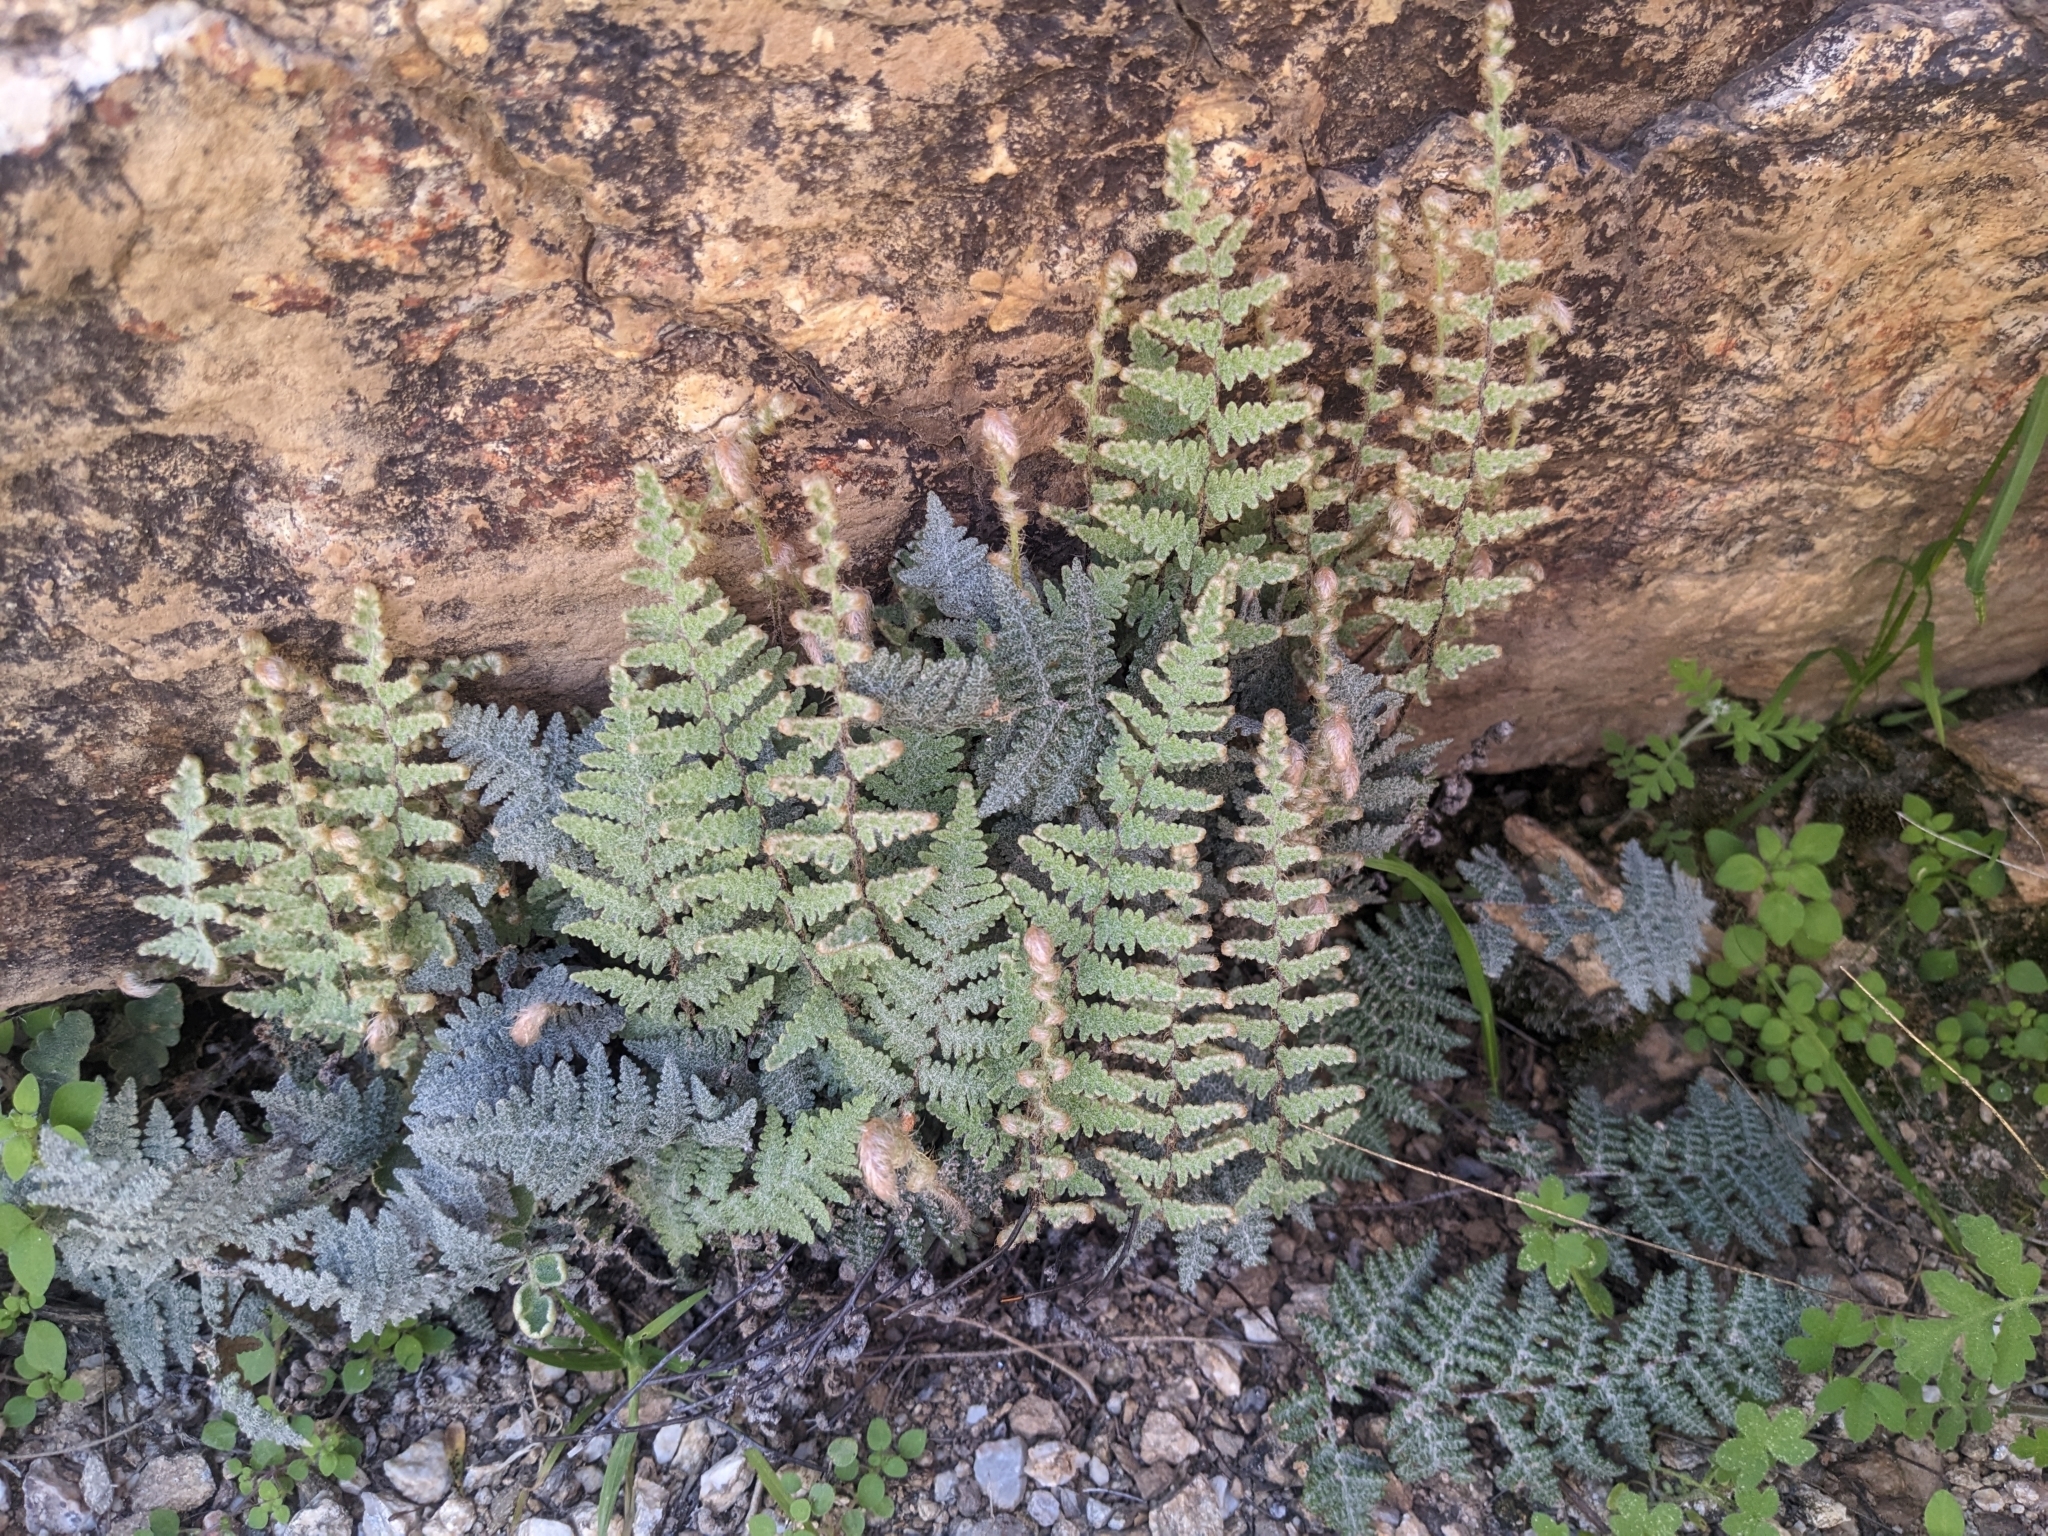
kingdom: Plantae
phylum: Tracheophyta
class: Polypodiopsida
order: Polypodiales
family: Pteridaceae
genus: Myriopteris
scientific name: Myriopteris lindheimeri
